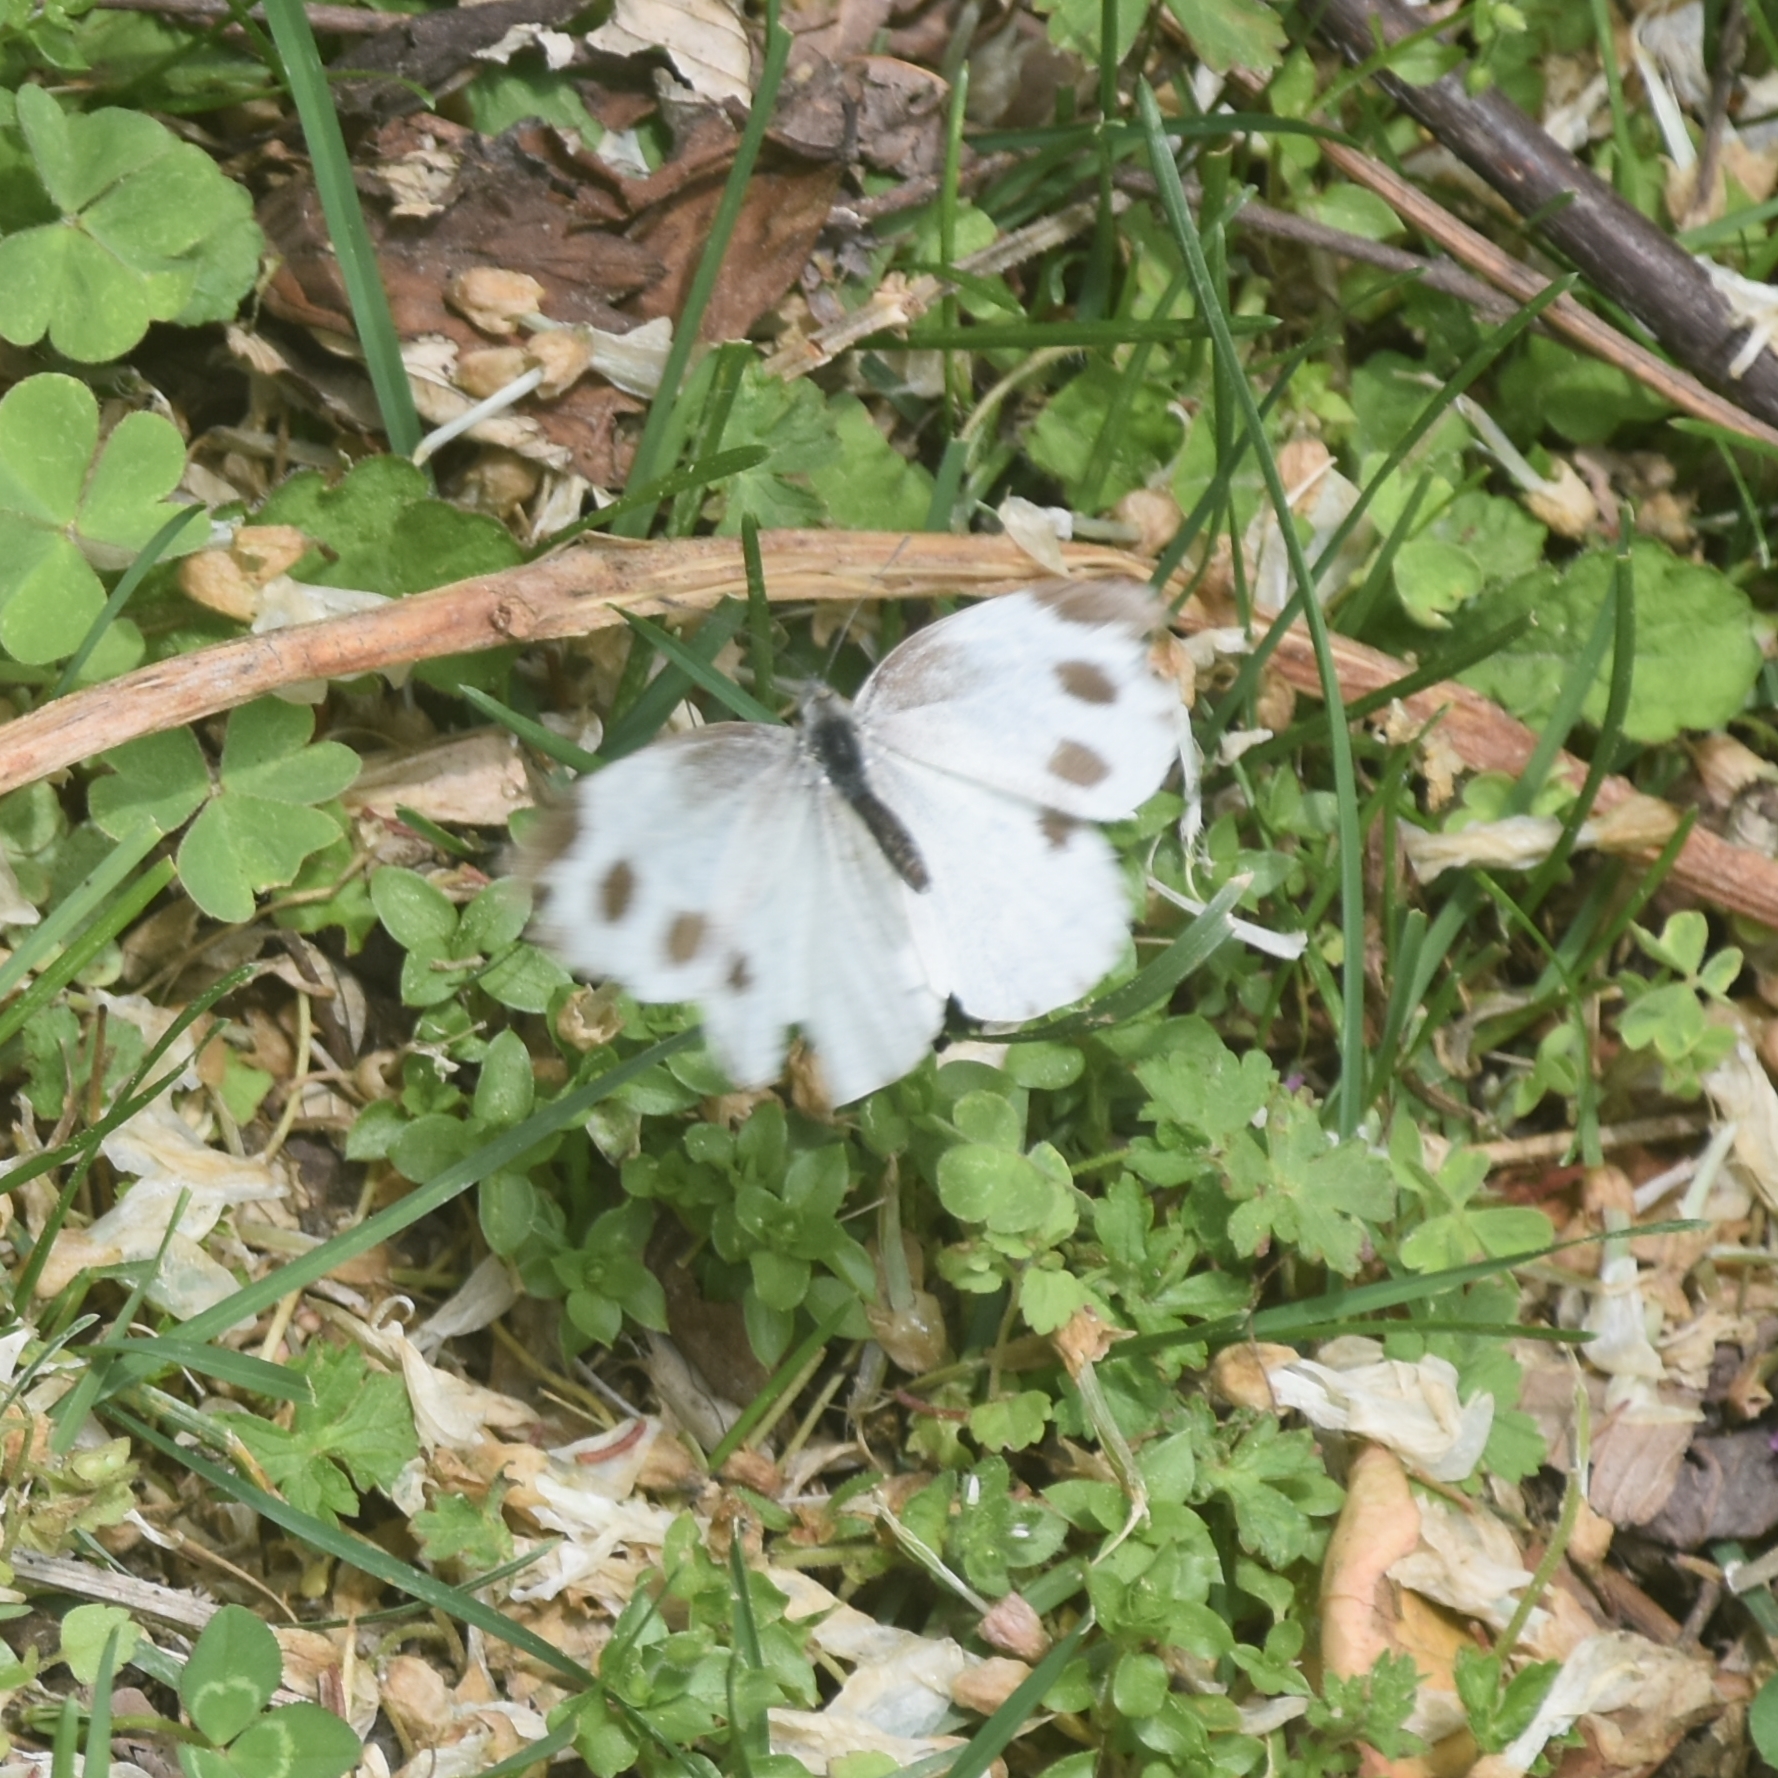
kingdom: Animalia
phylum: Arthropoda
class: Insecta
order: Lepidoptera
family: Pieridae
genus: Pieris
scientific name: Pieris canidia
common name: Indian cabbage white
